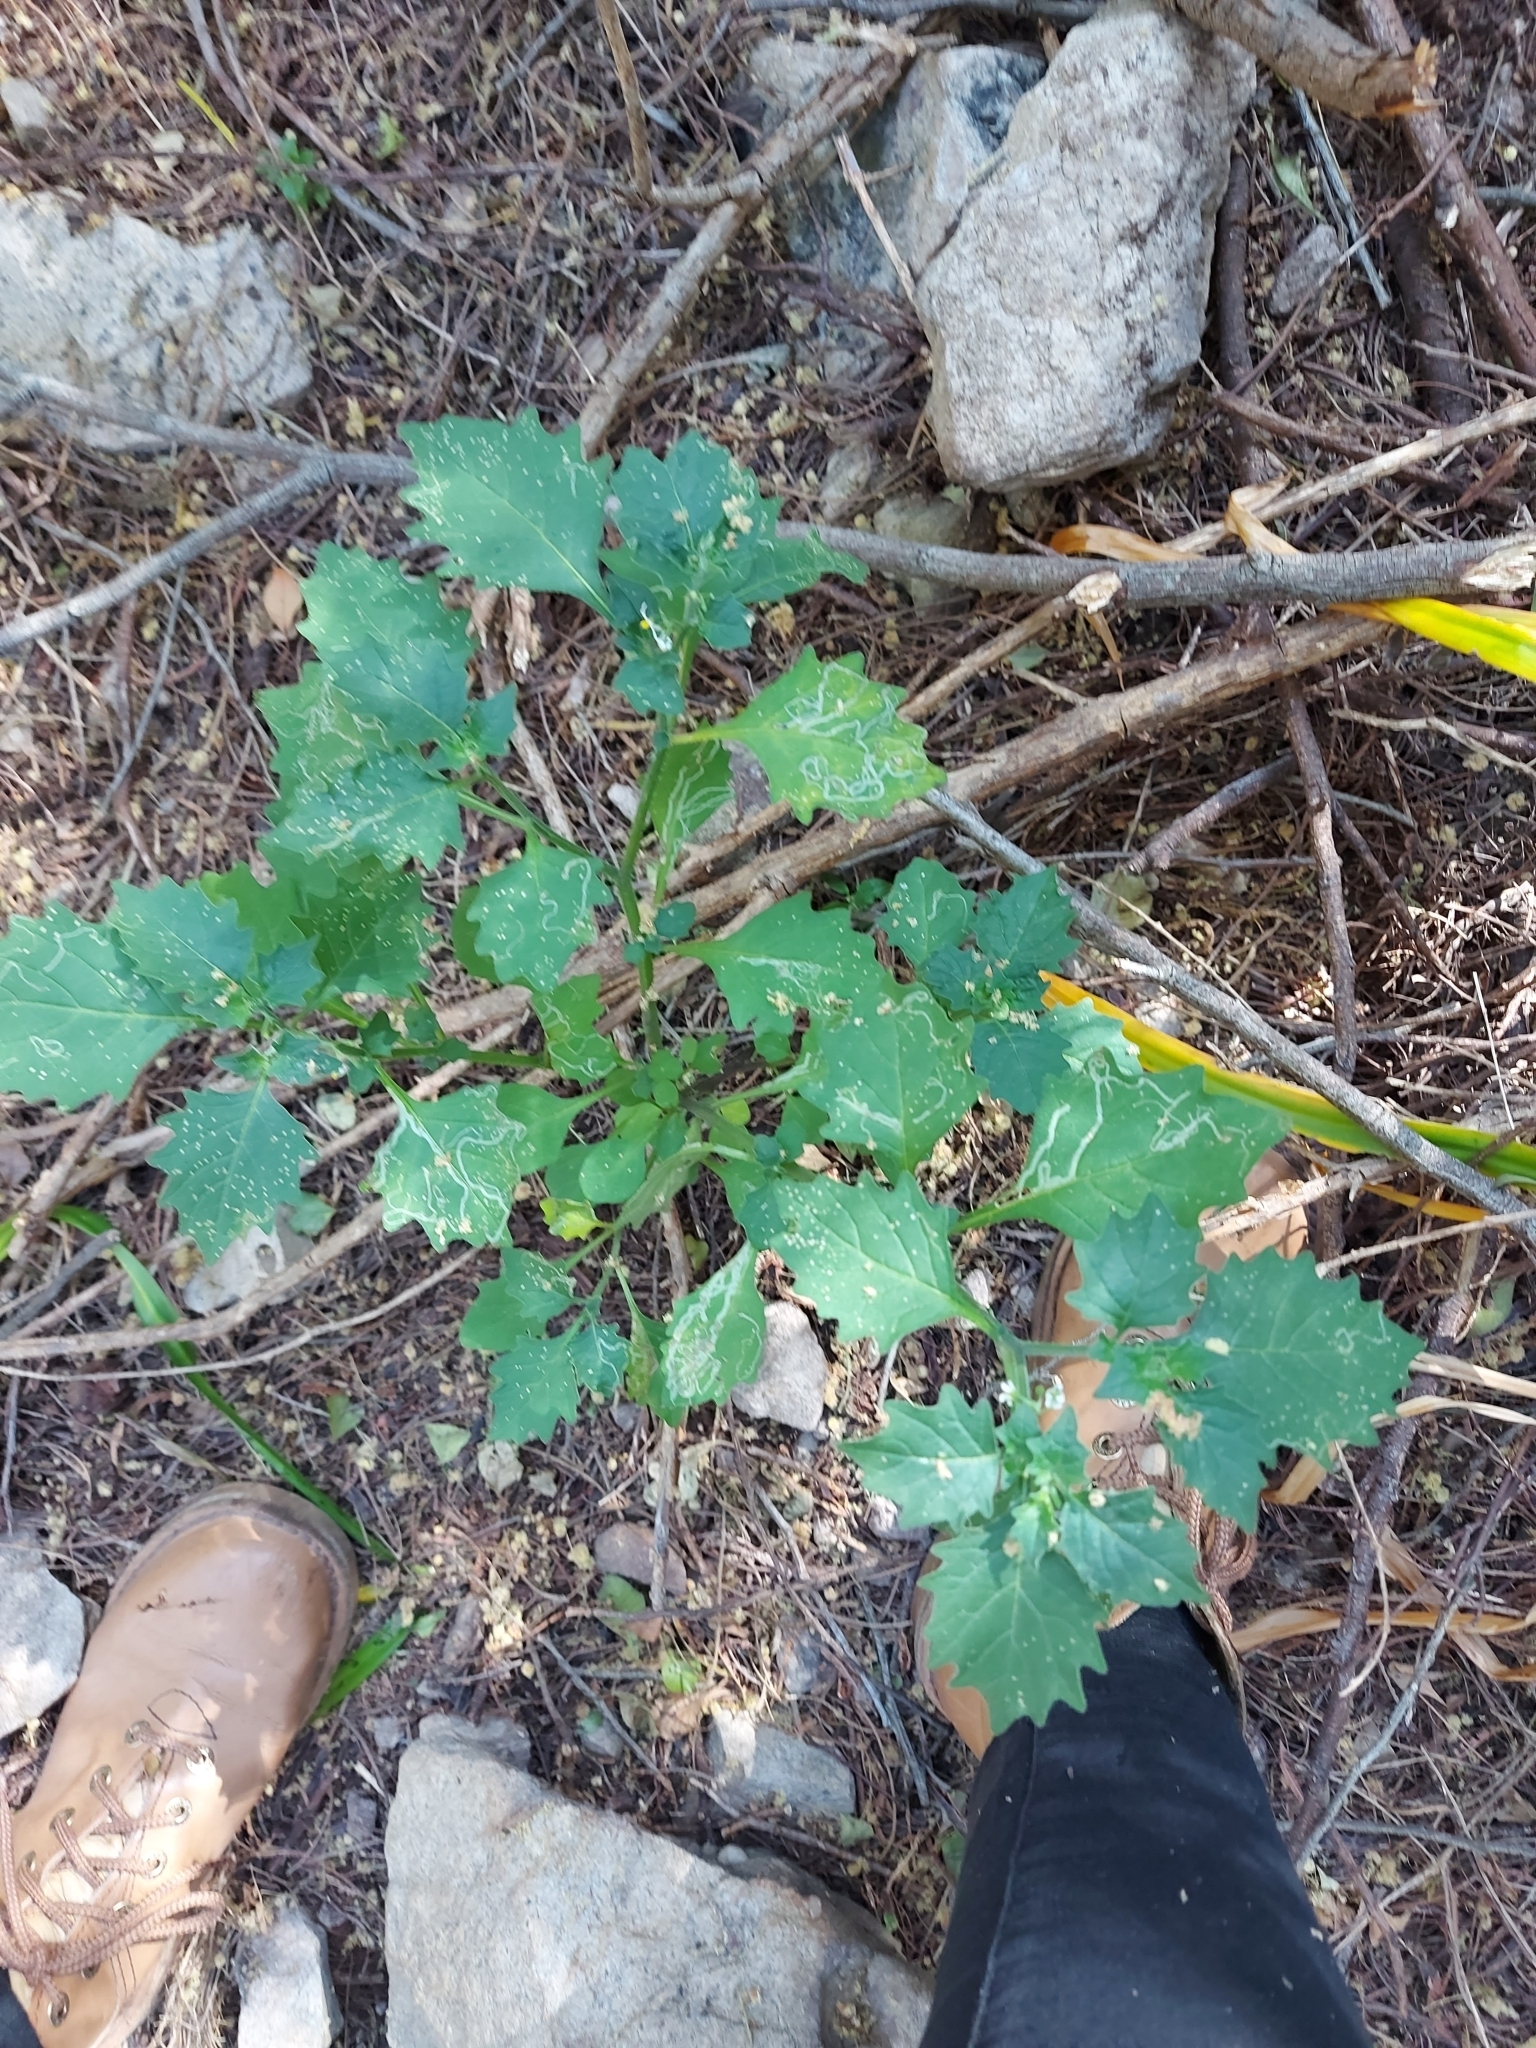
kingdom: Plantae
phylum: Tracheophyta
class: Magnoliopsida
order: Solanales
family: Solanaceae
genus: Solanum
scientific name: Solanum retroflexum
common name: Wonderberry
